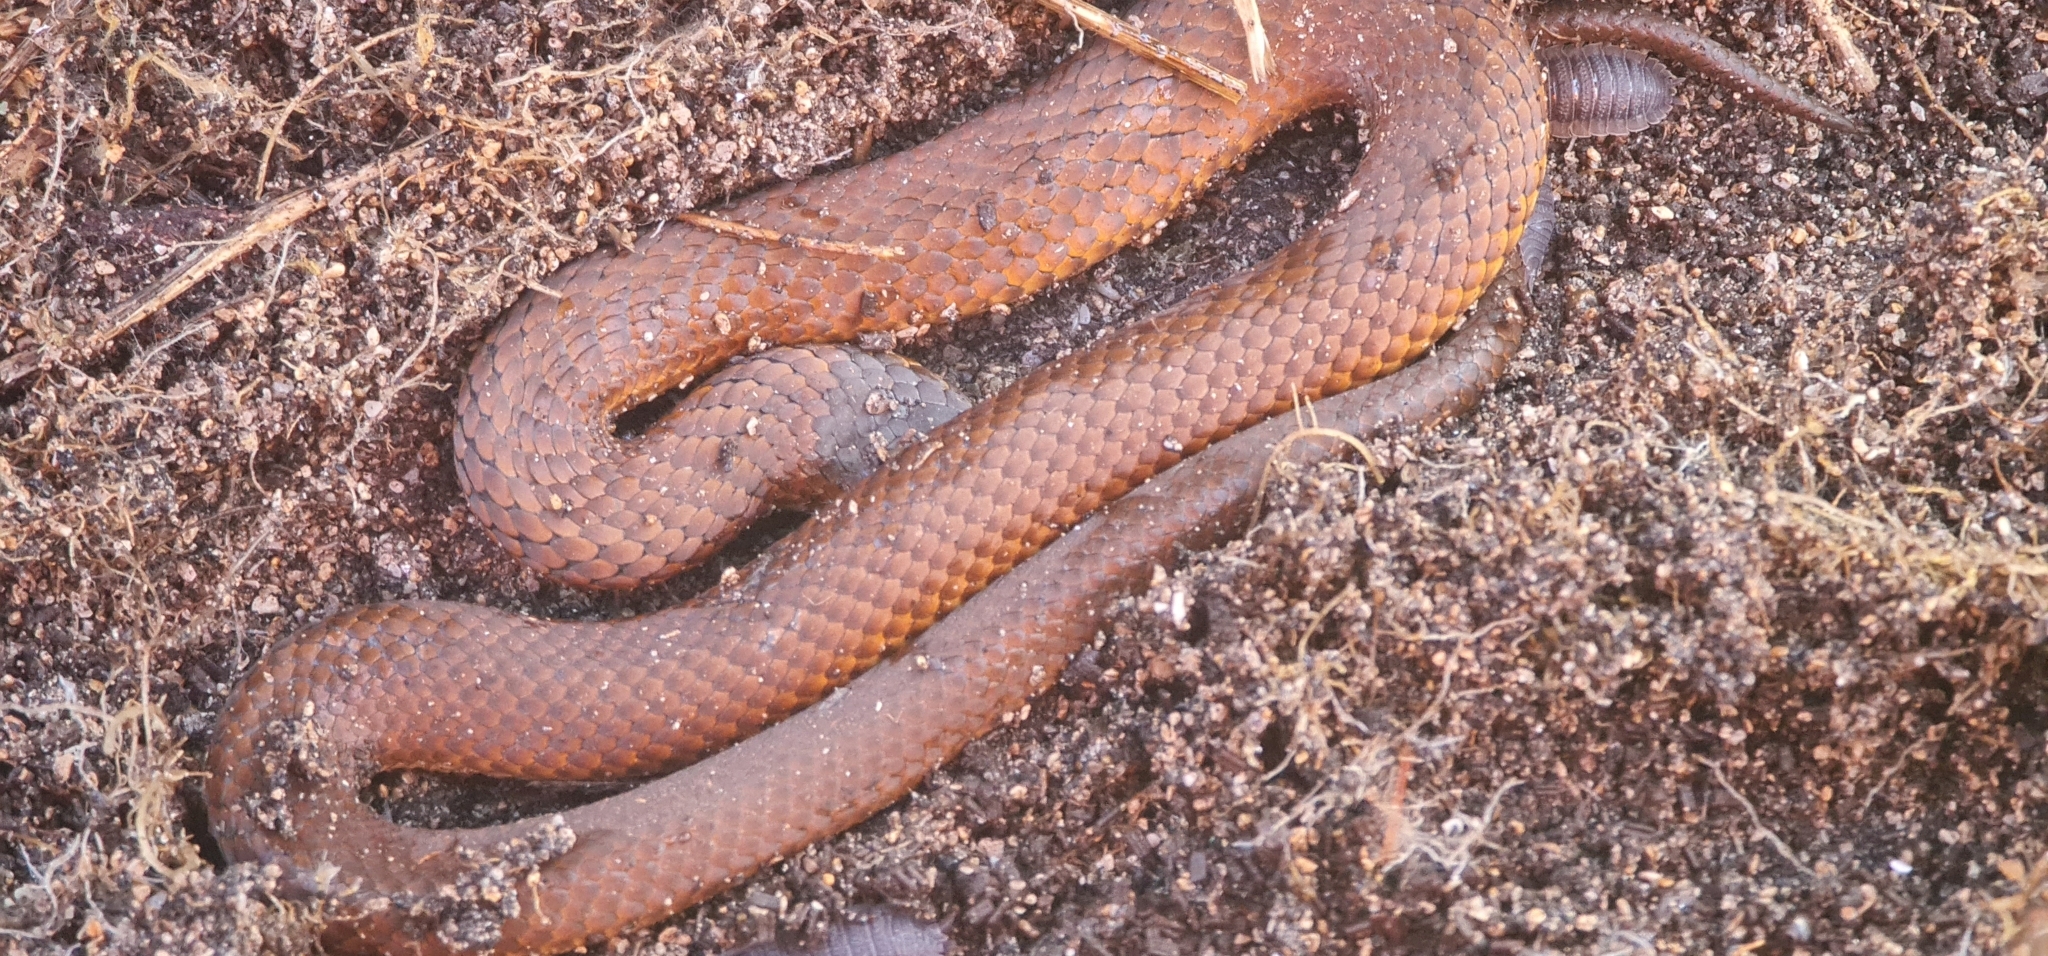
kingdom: Animalia
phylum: Chordata
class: Squamata
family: Elapidae
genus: Austrelaps
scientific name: Austrelaps superbus
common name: Copperhead snake
